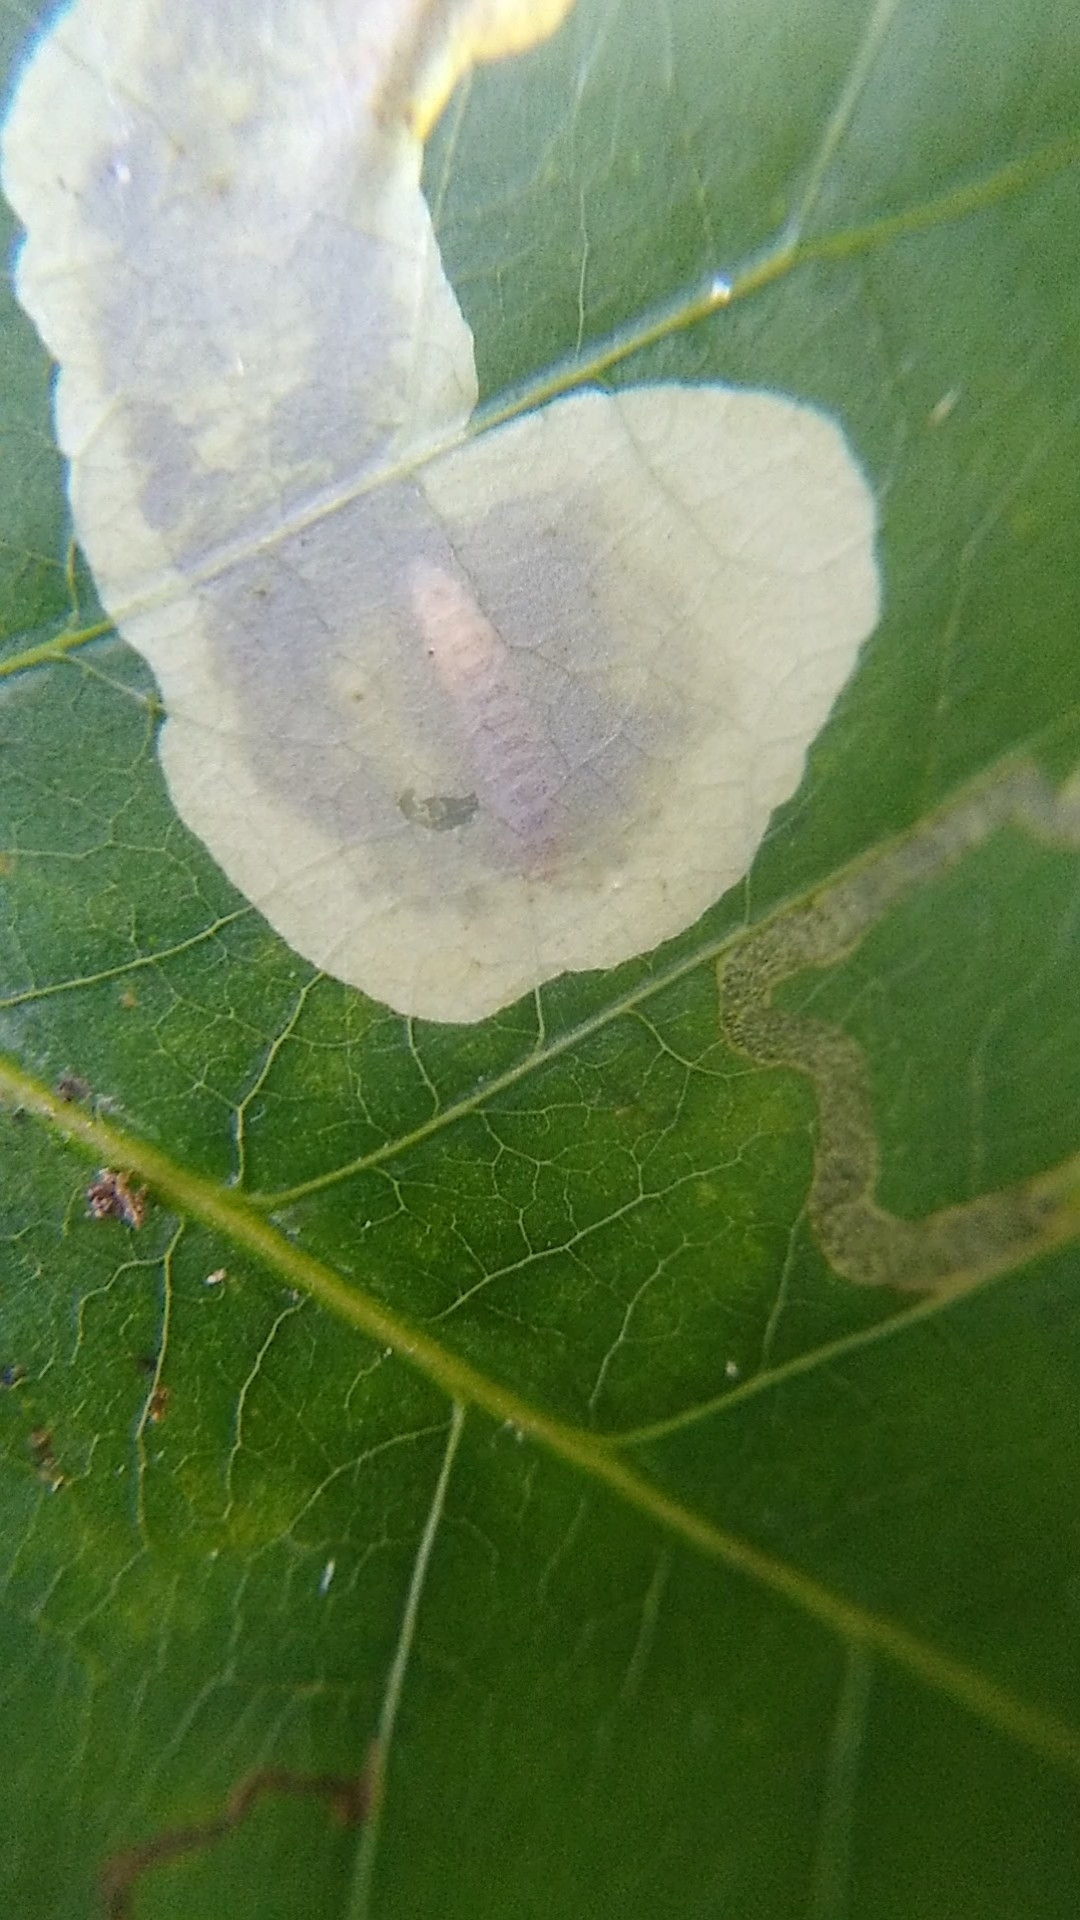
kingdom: Animalia
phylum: Arthropoda
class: Insecta
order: Lepidoptera
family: Gracillariidae
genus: Cameraria
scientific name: Cameraria guttifinitella
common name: Poison ivy leaf-miner moth
